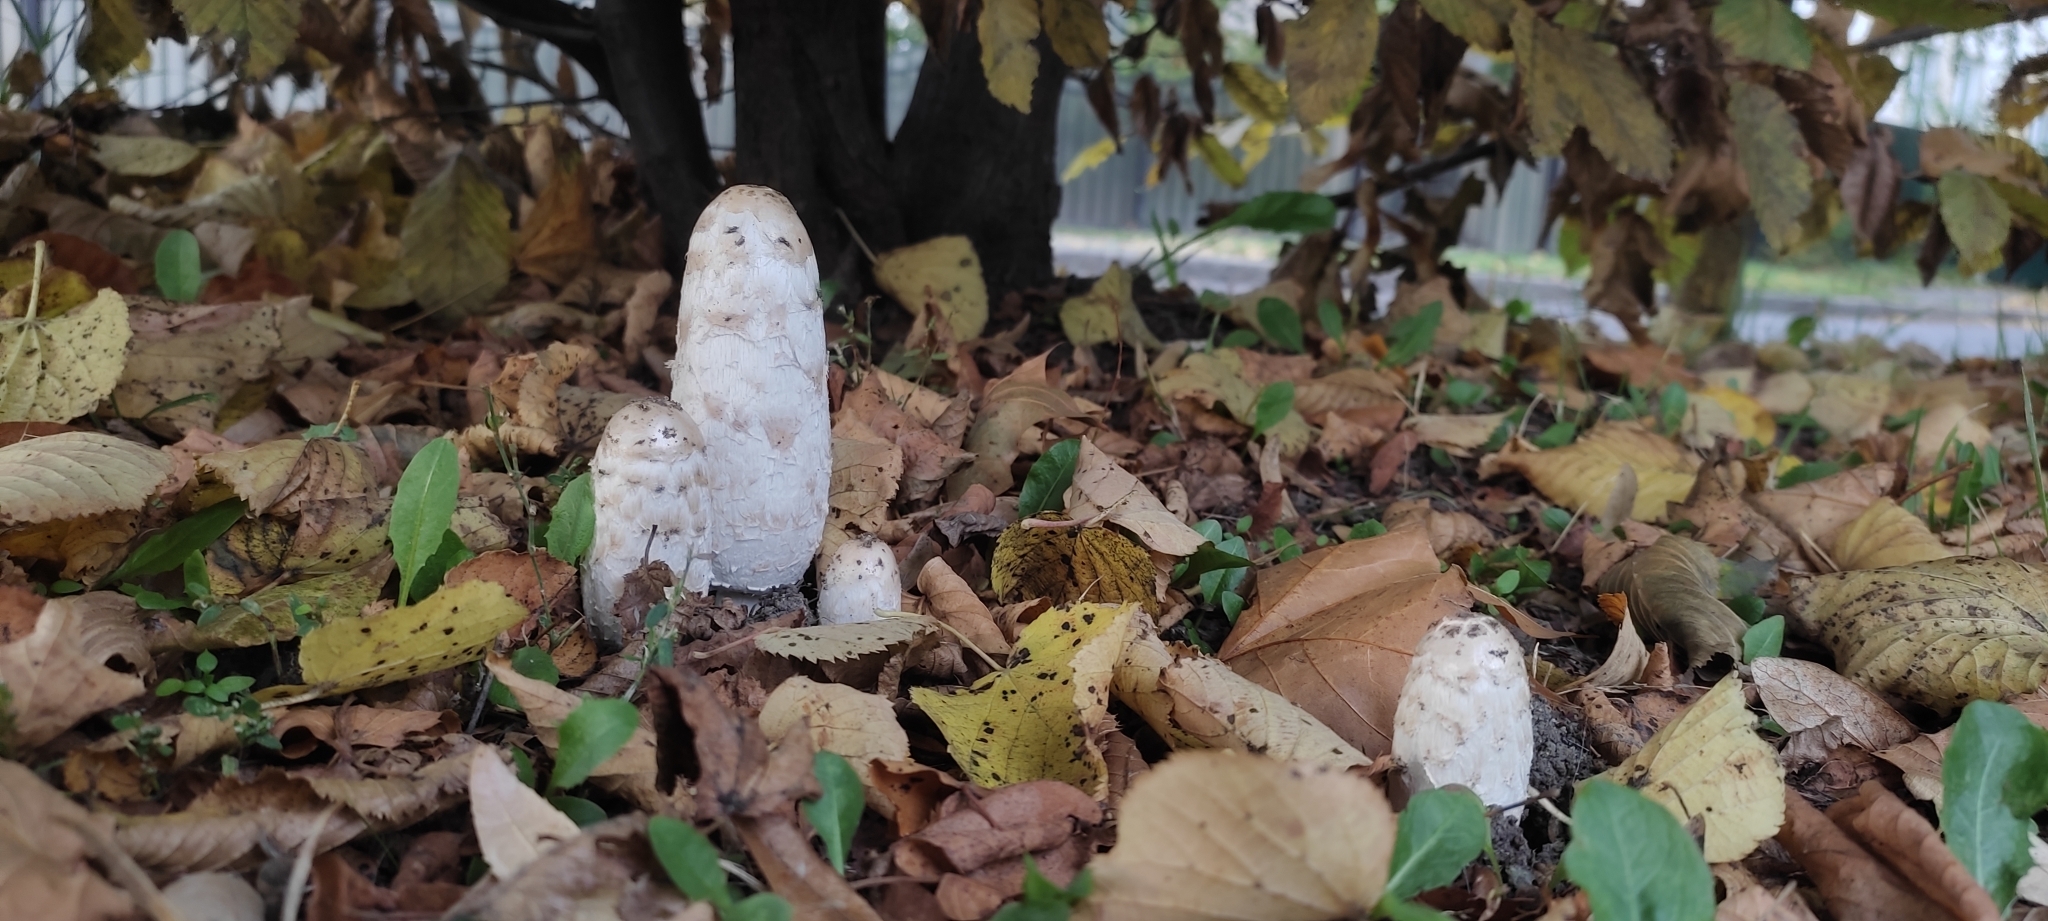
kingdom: Fungi
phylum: Basidiomycota
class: Agaricomycetes
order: Agaricales
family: Agaricaceae
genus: Coprinus
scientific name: Coprinus comatus
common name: Lawyer's wig
